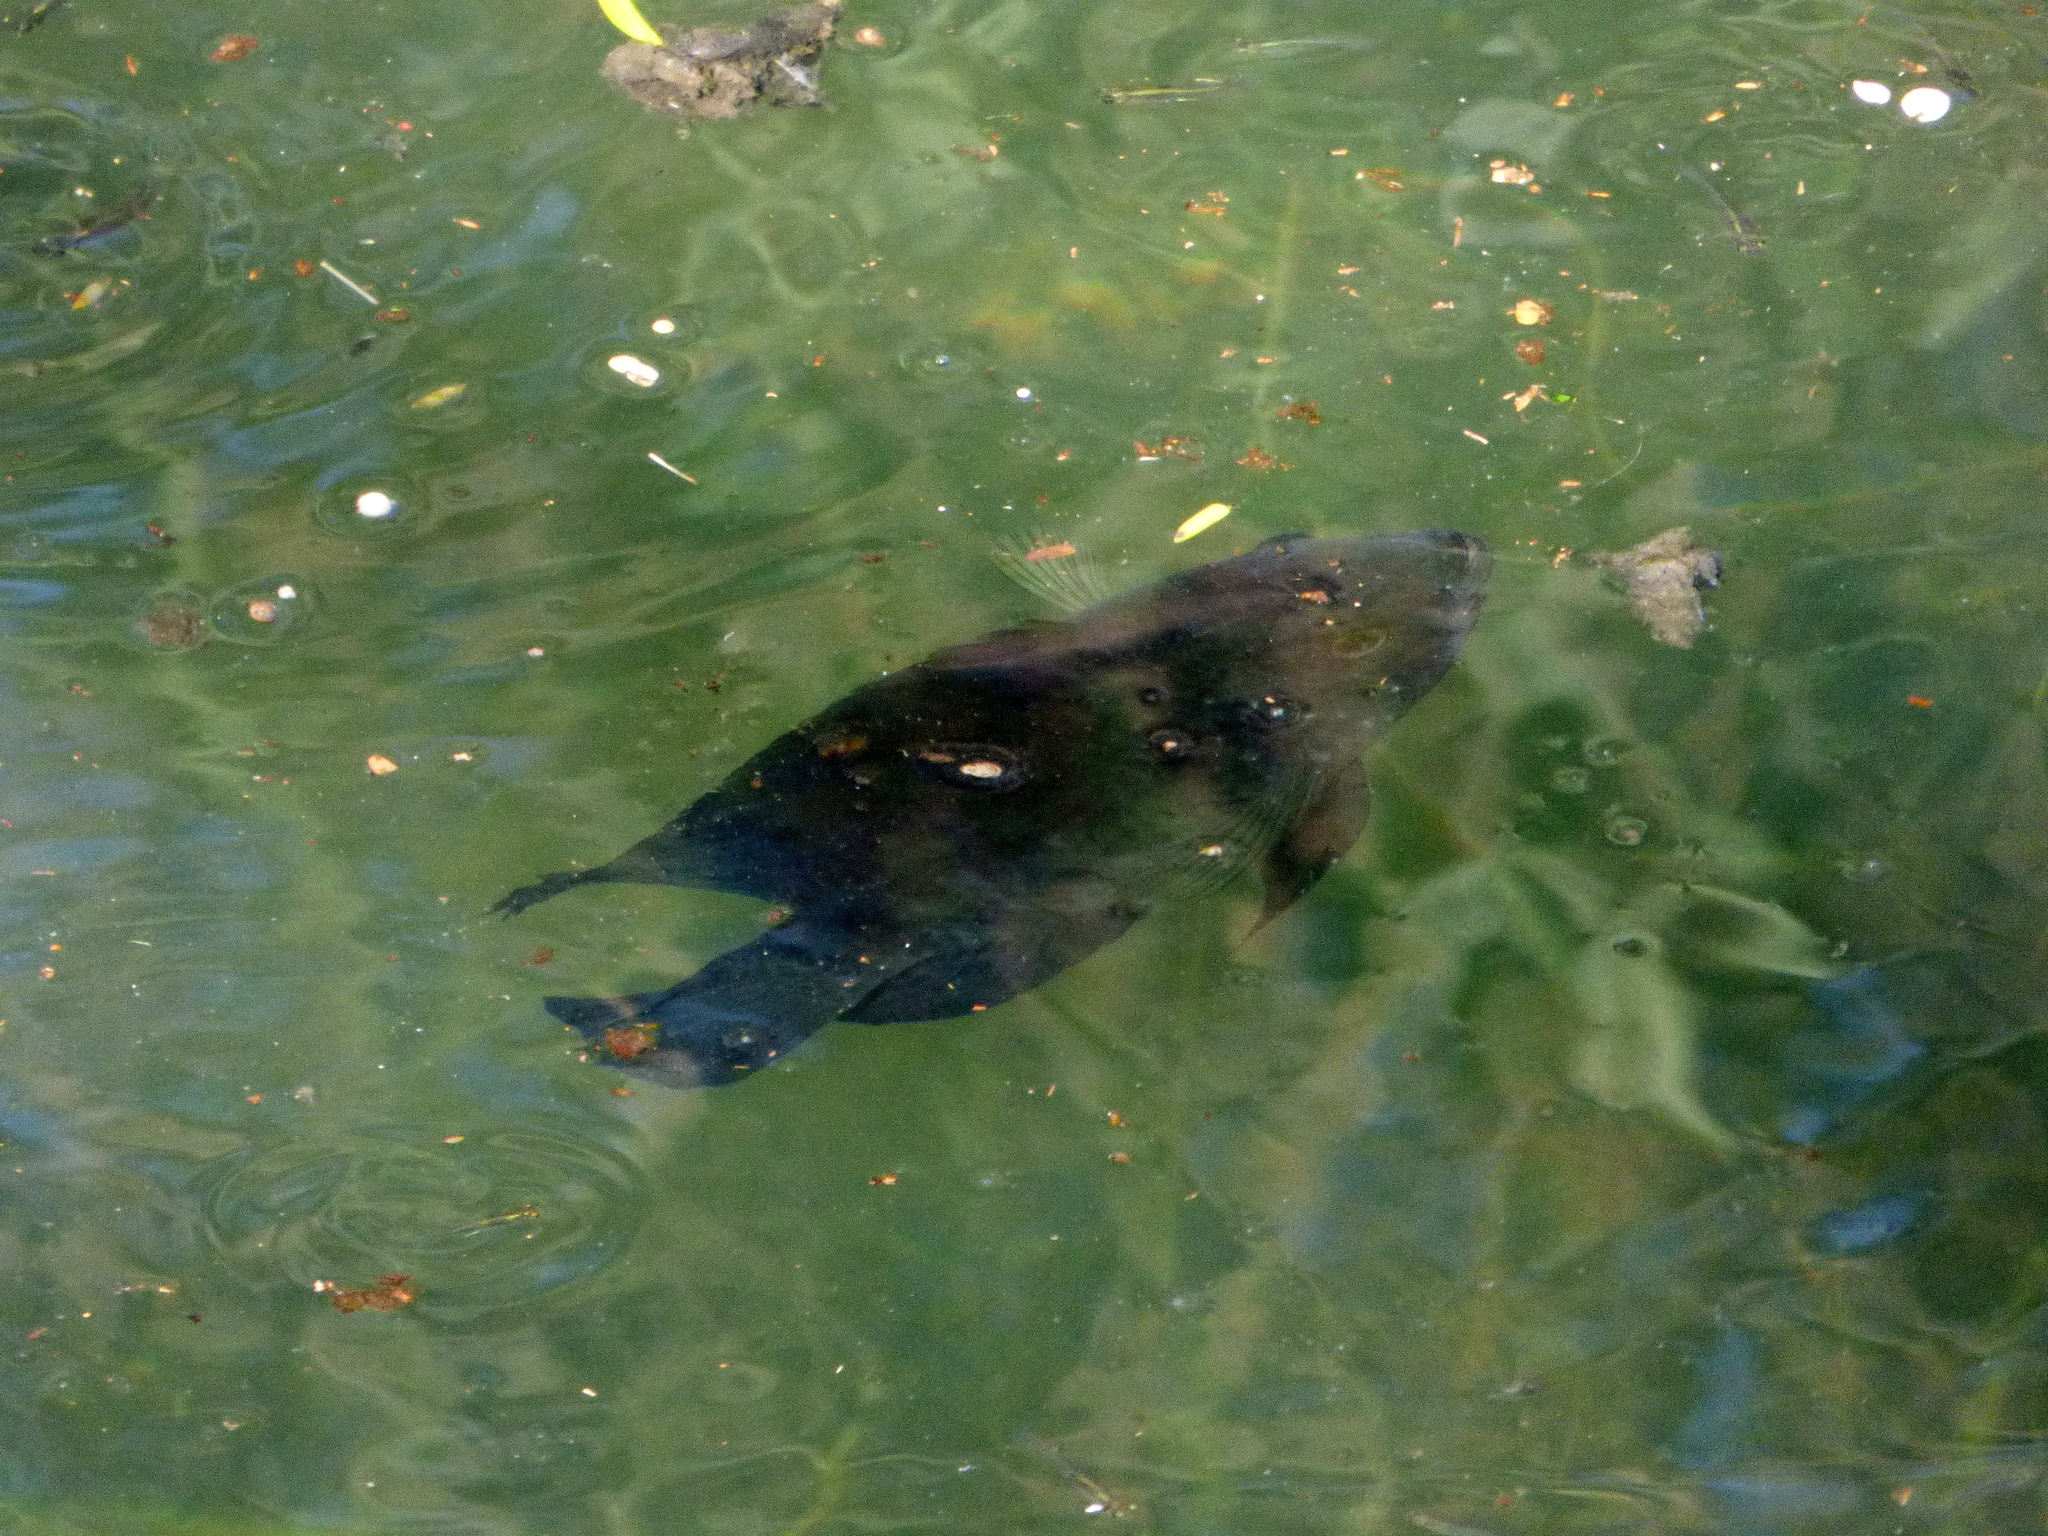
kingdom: Animalia
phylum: Chordata
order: Perciformes
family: Cichlidae
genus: Australoheros
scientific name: Australoheros facetus
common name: Chameleon cichlid
